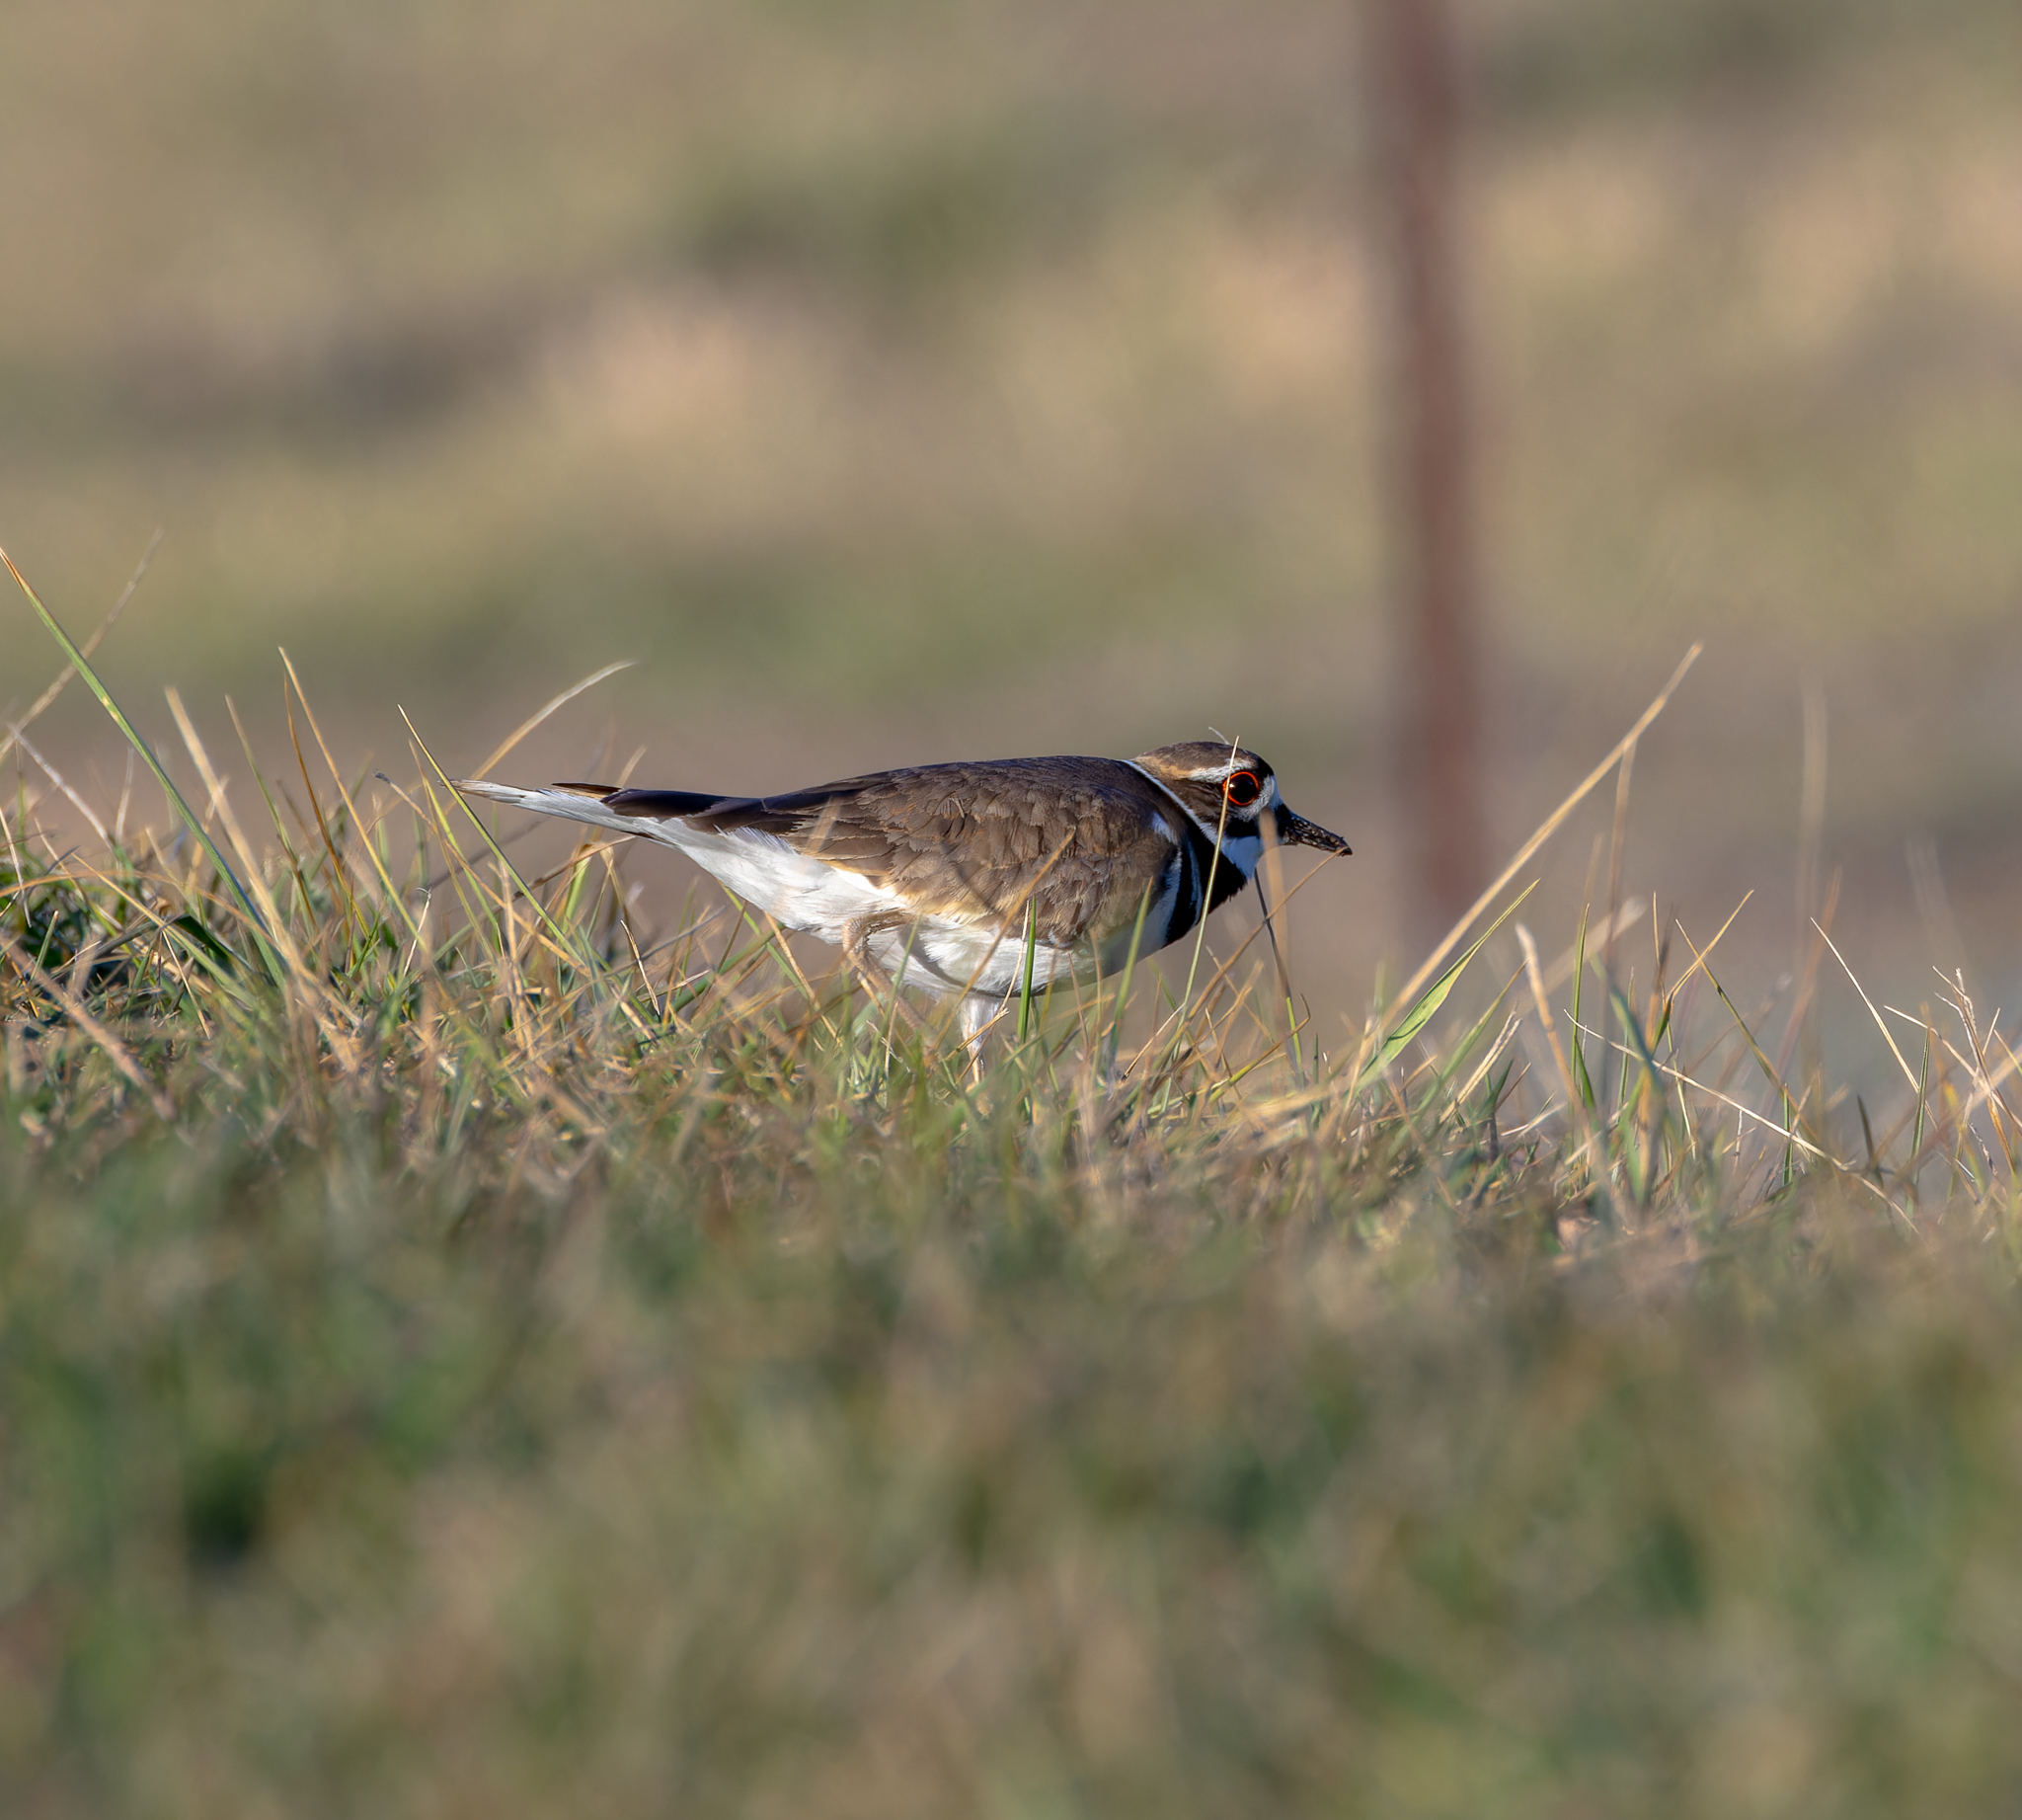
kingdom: Animalia
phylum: Chordata
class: Aves
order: Charadriiformes
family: Charadriidae
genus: Charadrius
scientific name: Charadrius vociferus
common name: Killdeer
